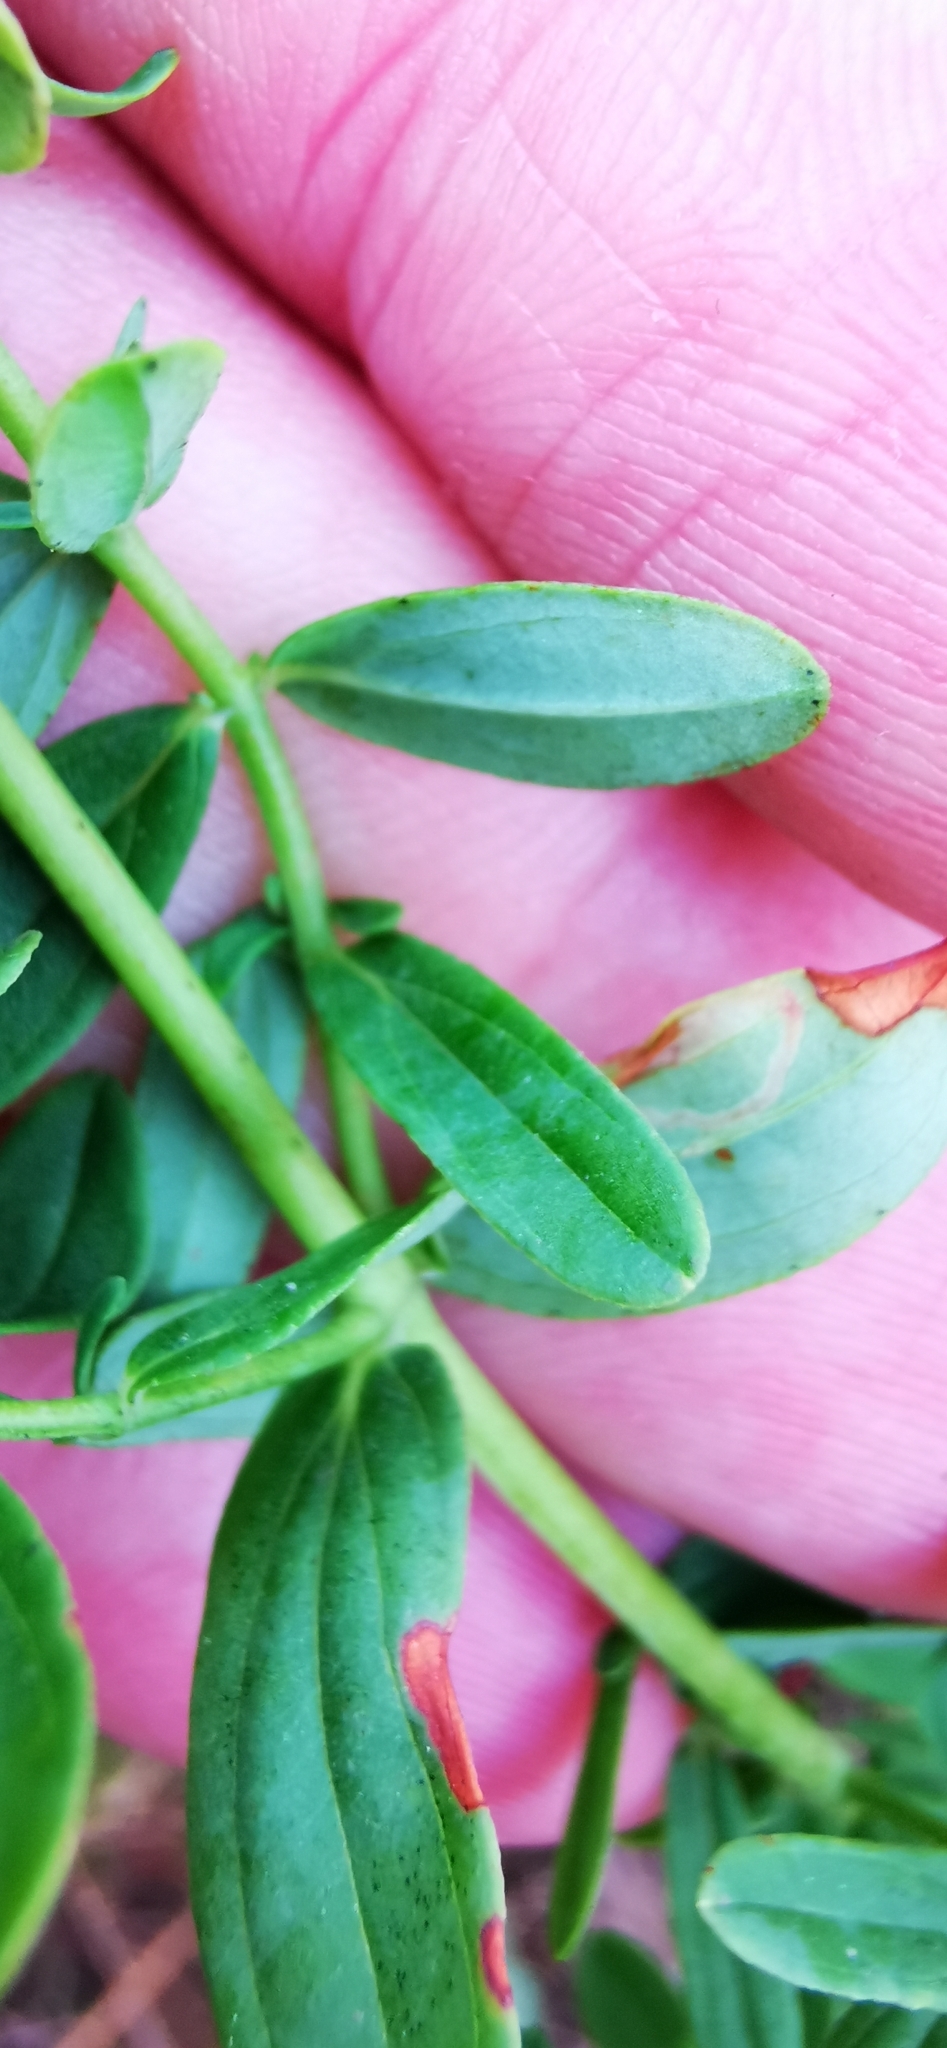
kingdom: Plantae
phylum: Tracheophyta
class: Magnoliopsida
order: Malpighiales
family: Hypericaceae
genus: Hypericum
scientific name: Hypericum perforatum
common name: Common st. johnswort
